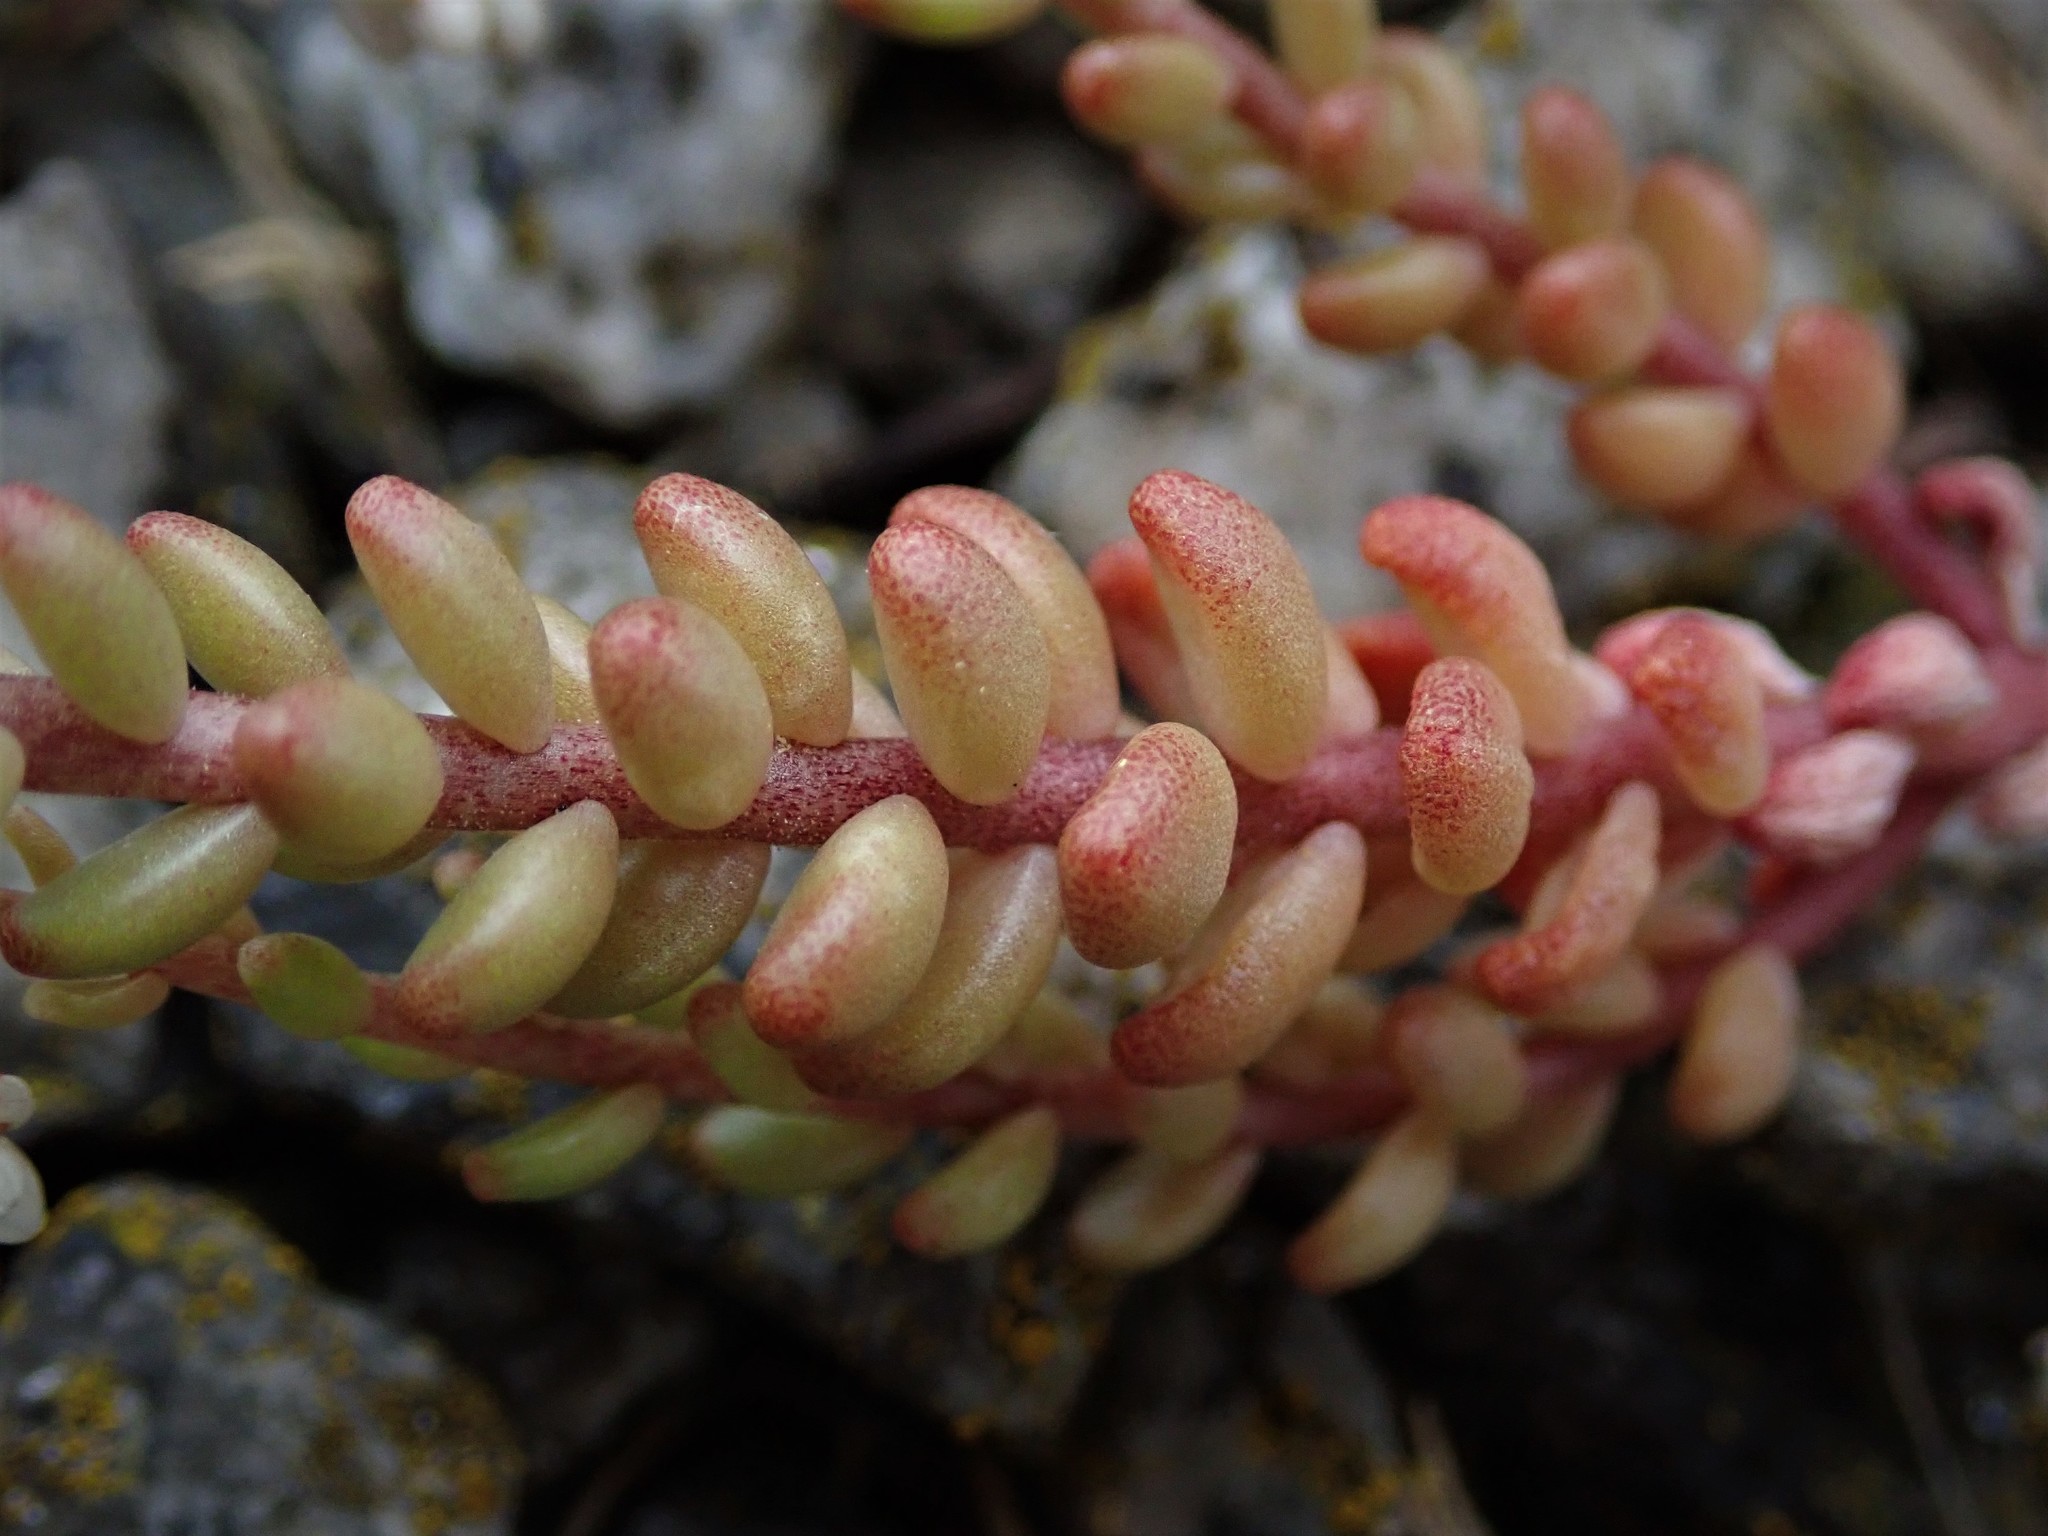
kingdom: Plantae
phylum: Tracheophyta
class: Magnoliopsida
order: Saxifragales
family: Crassulaceae
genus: Sedum
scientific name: Sedum album
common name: White stonecrop
